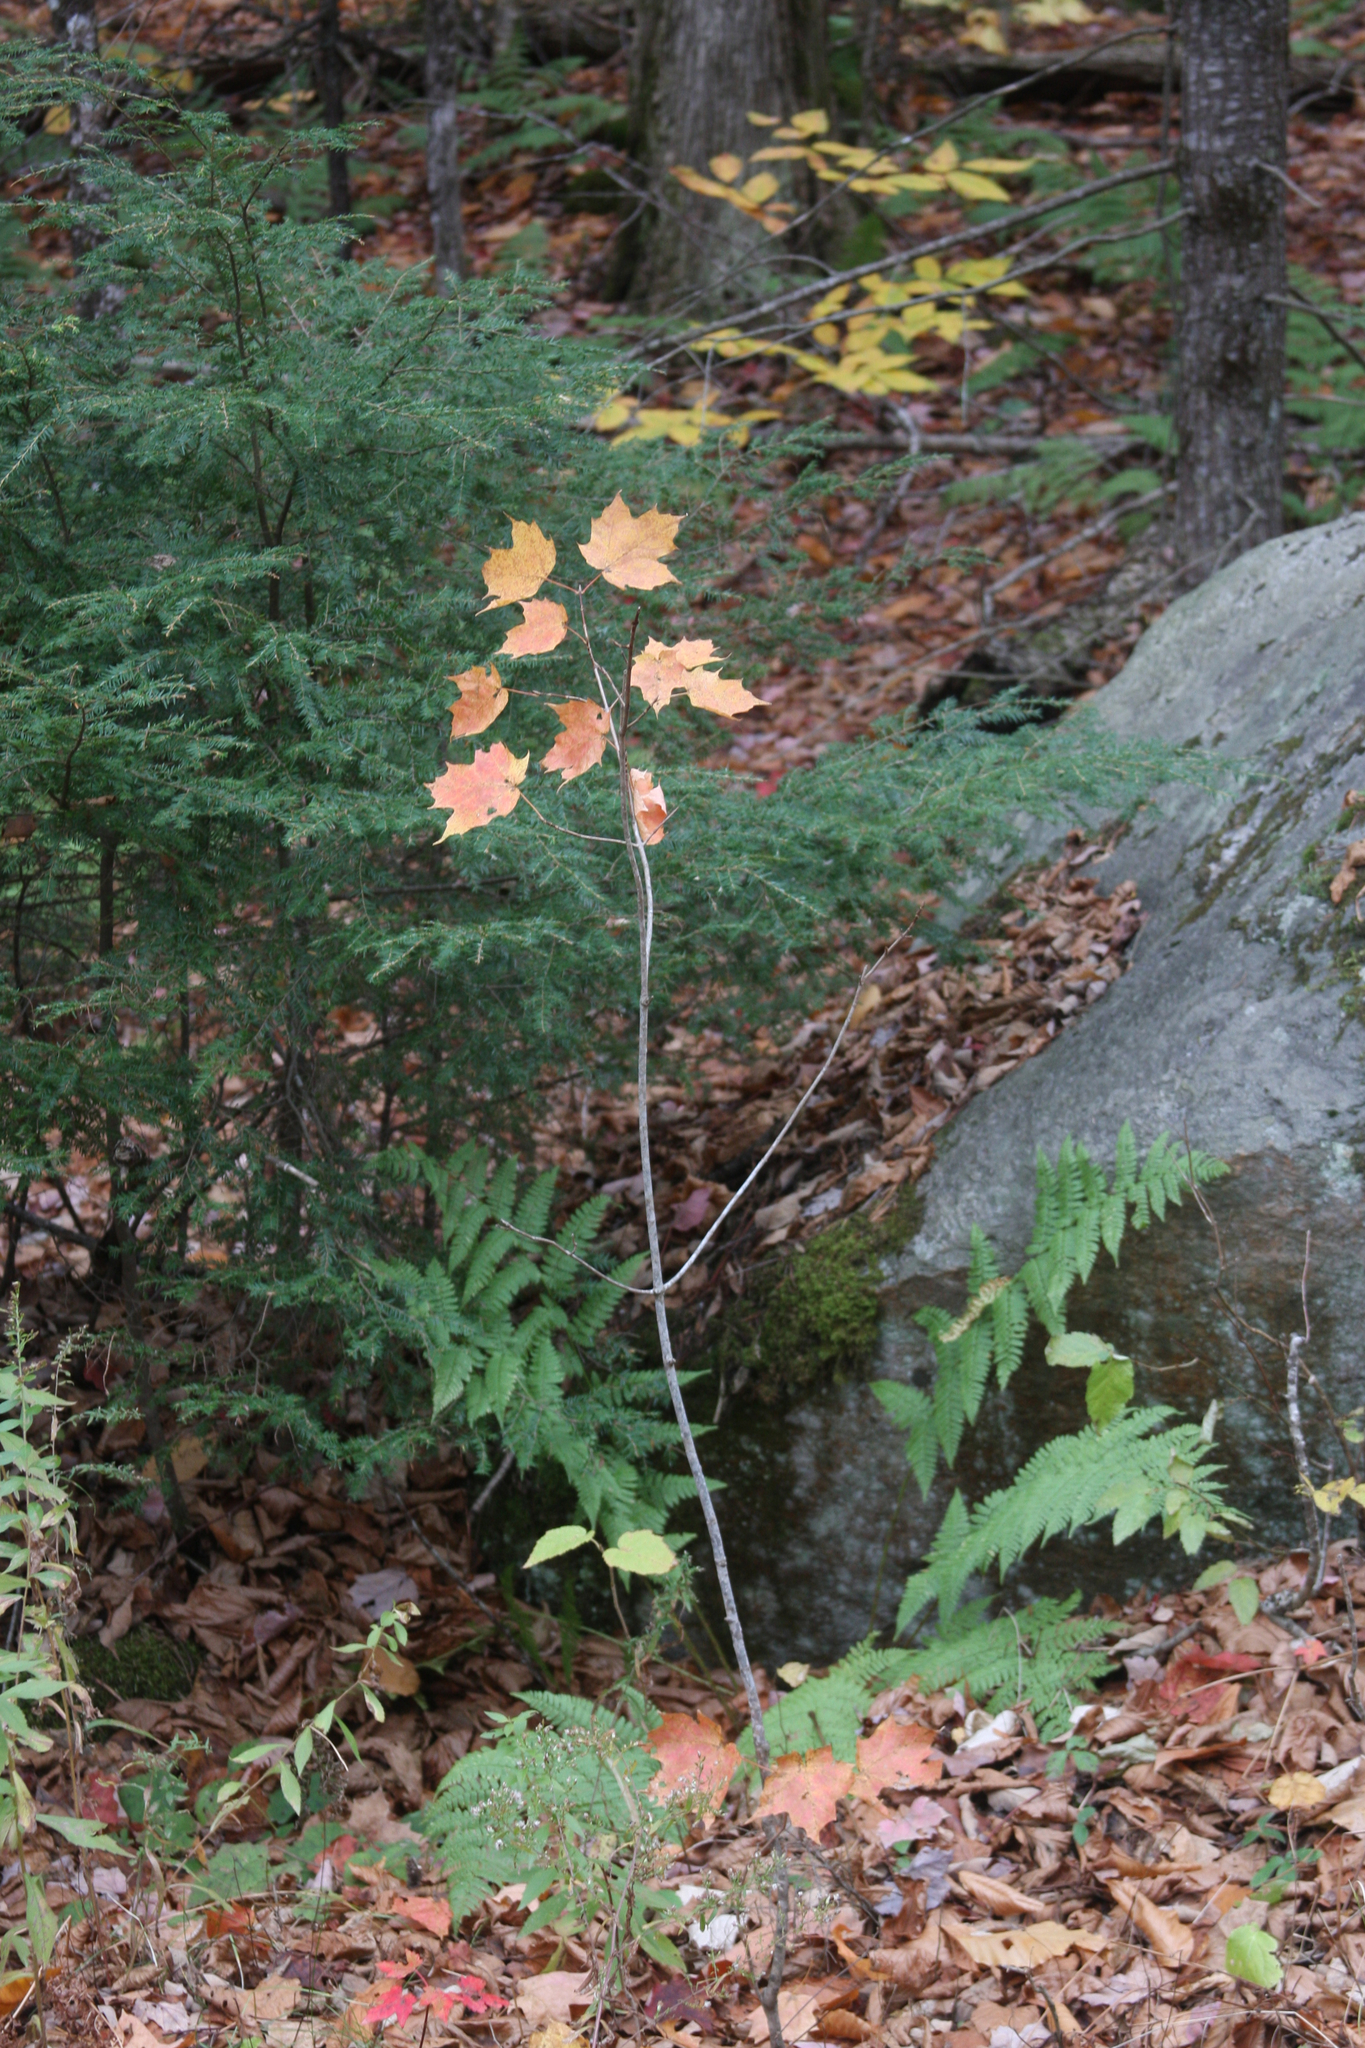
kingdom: Plantae
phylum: Tracheophyta
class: Magnoliopsida
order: Sapindales
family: Sapindaceae
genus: Acer
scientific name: Acer saccharum
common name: Sugar maple
